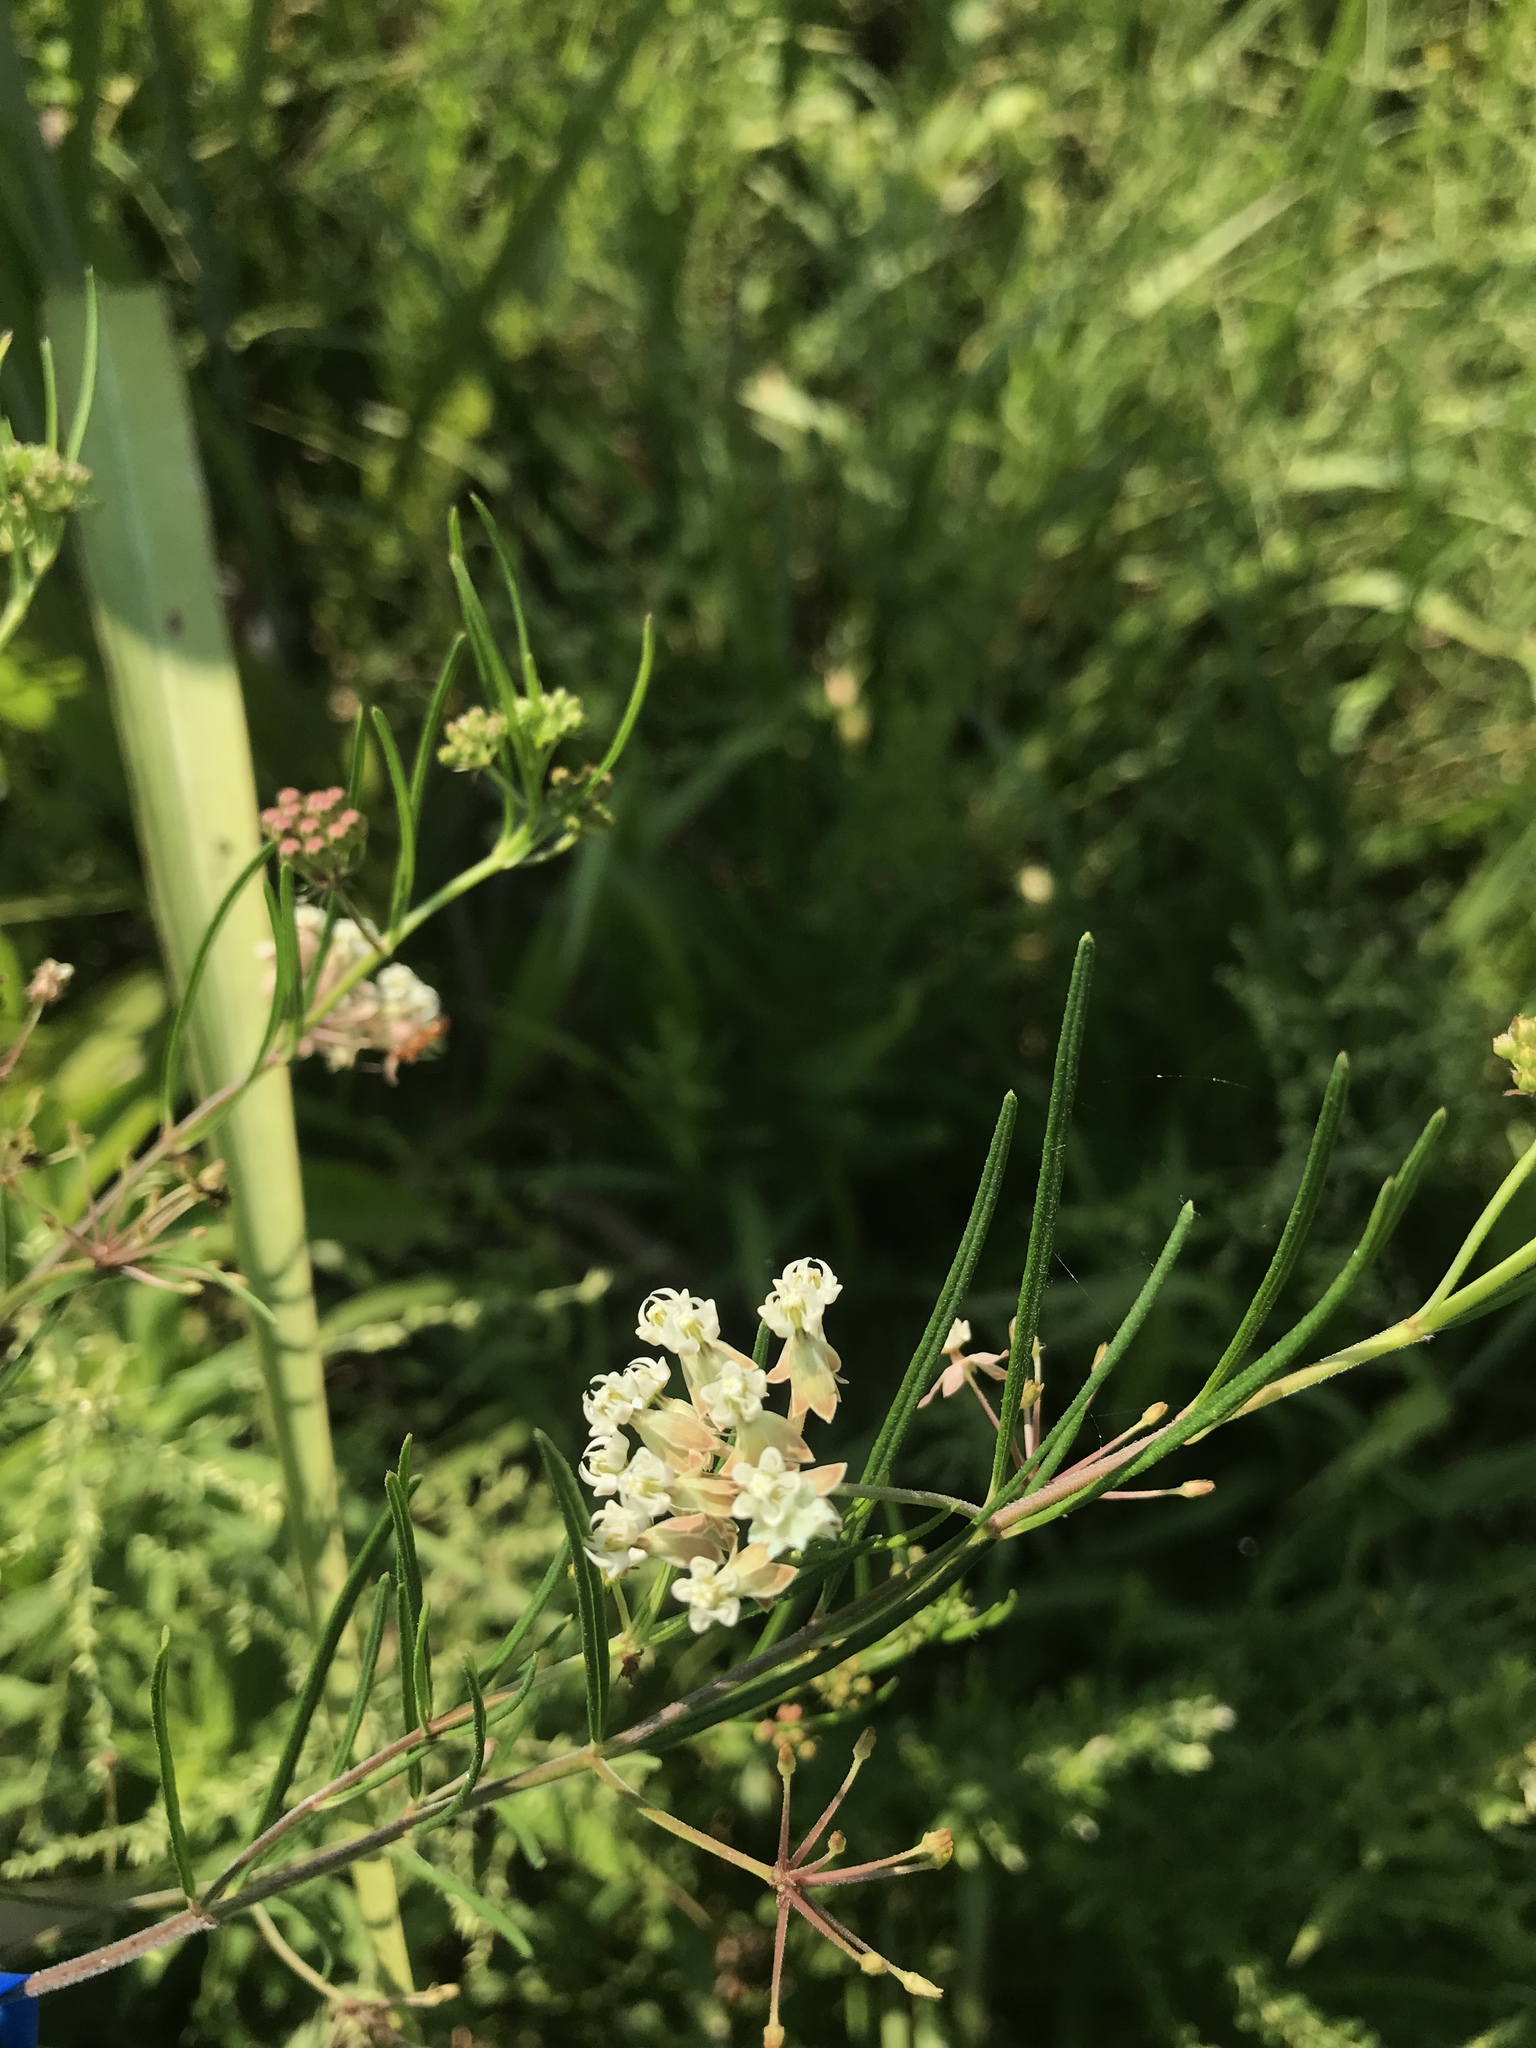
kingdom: Plantae
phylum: Tracheophyta
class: Magnoliopsida
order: Gentianales
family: Apocynaceae
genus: Asclepias
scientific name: Asclepias verticillata
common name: Eastern whorled milkweed
